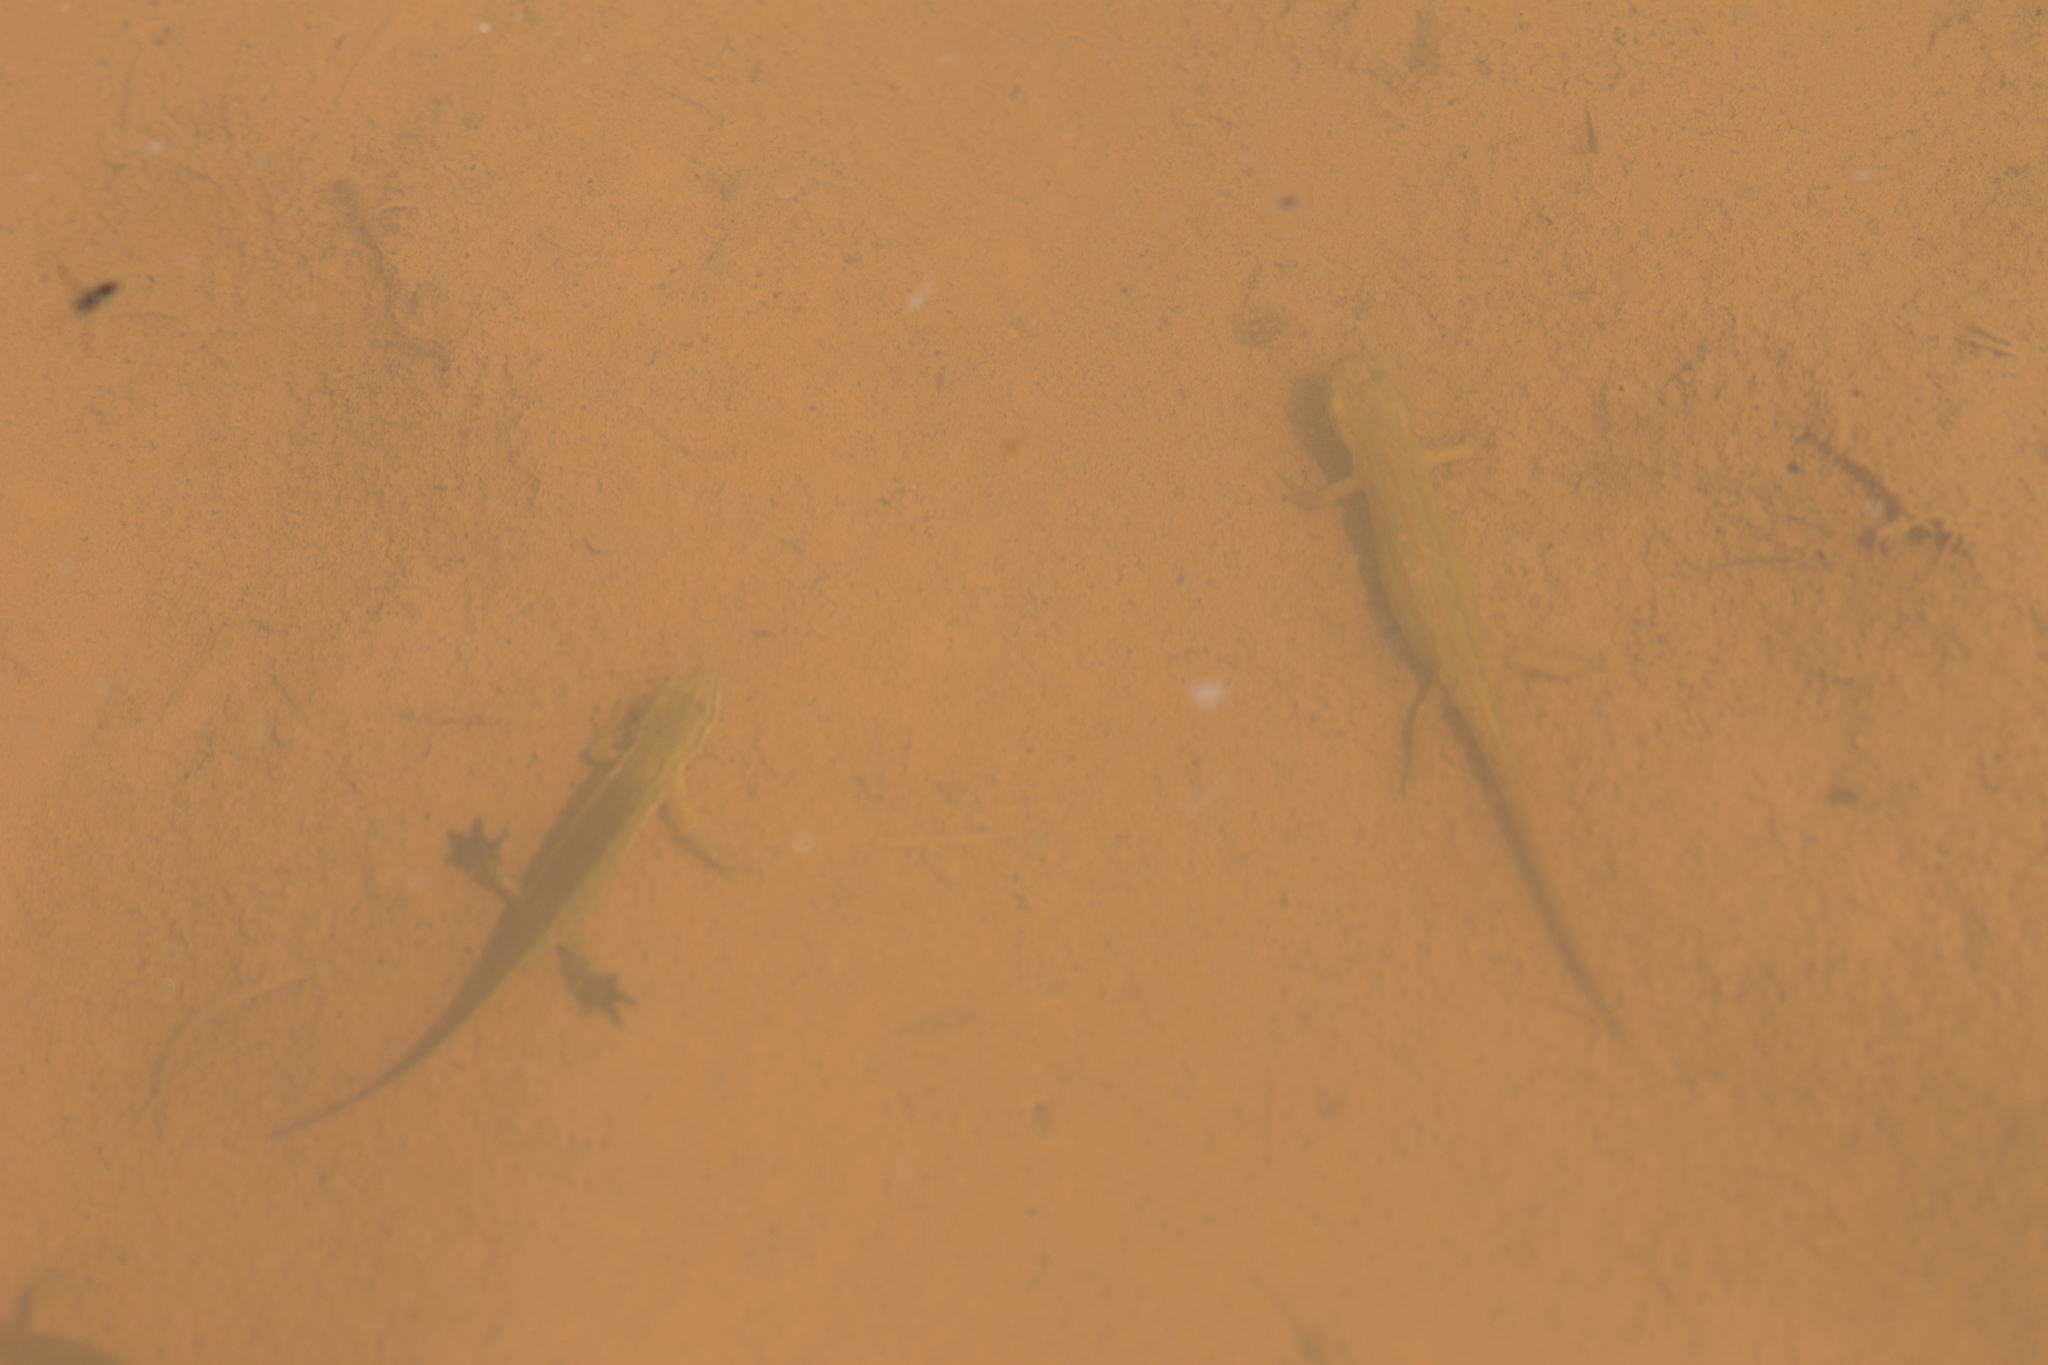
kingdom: Animalia
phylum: Chordata
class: Amphibia
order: Caudata
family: Salamandridae
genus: Lissotriton
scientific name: Lissotriton helveticus
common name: Palmate newt
